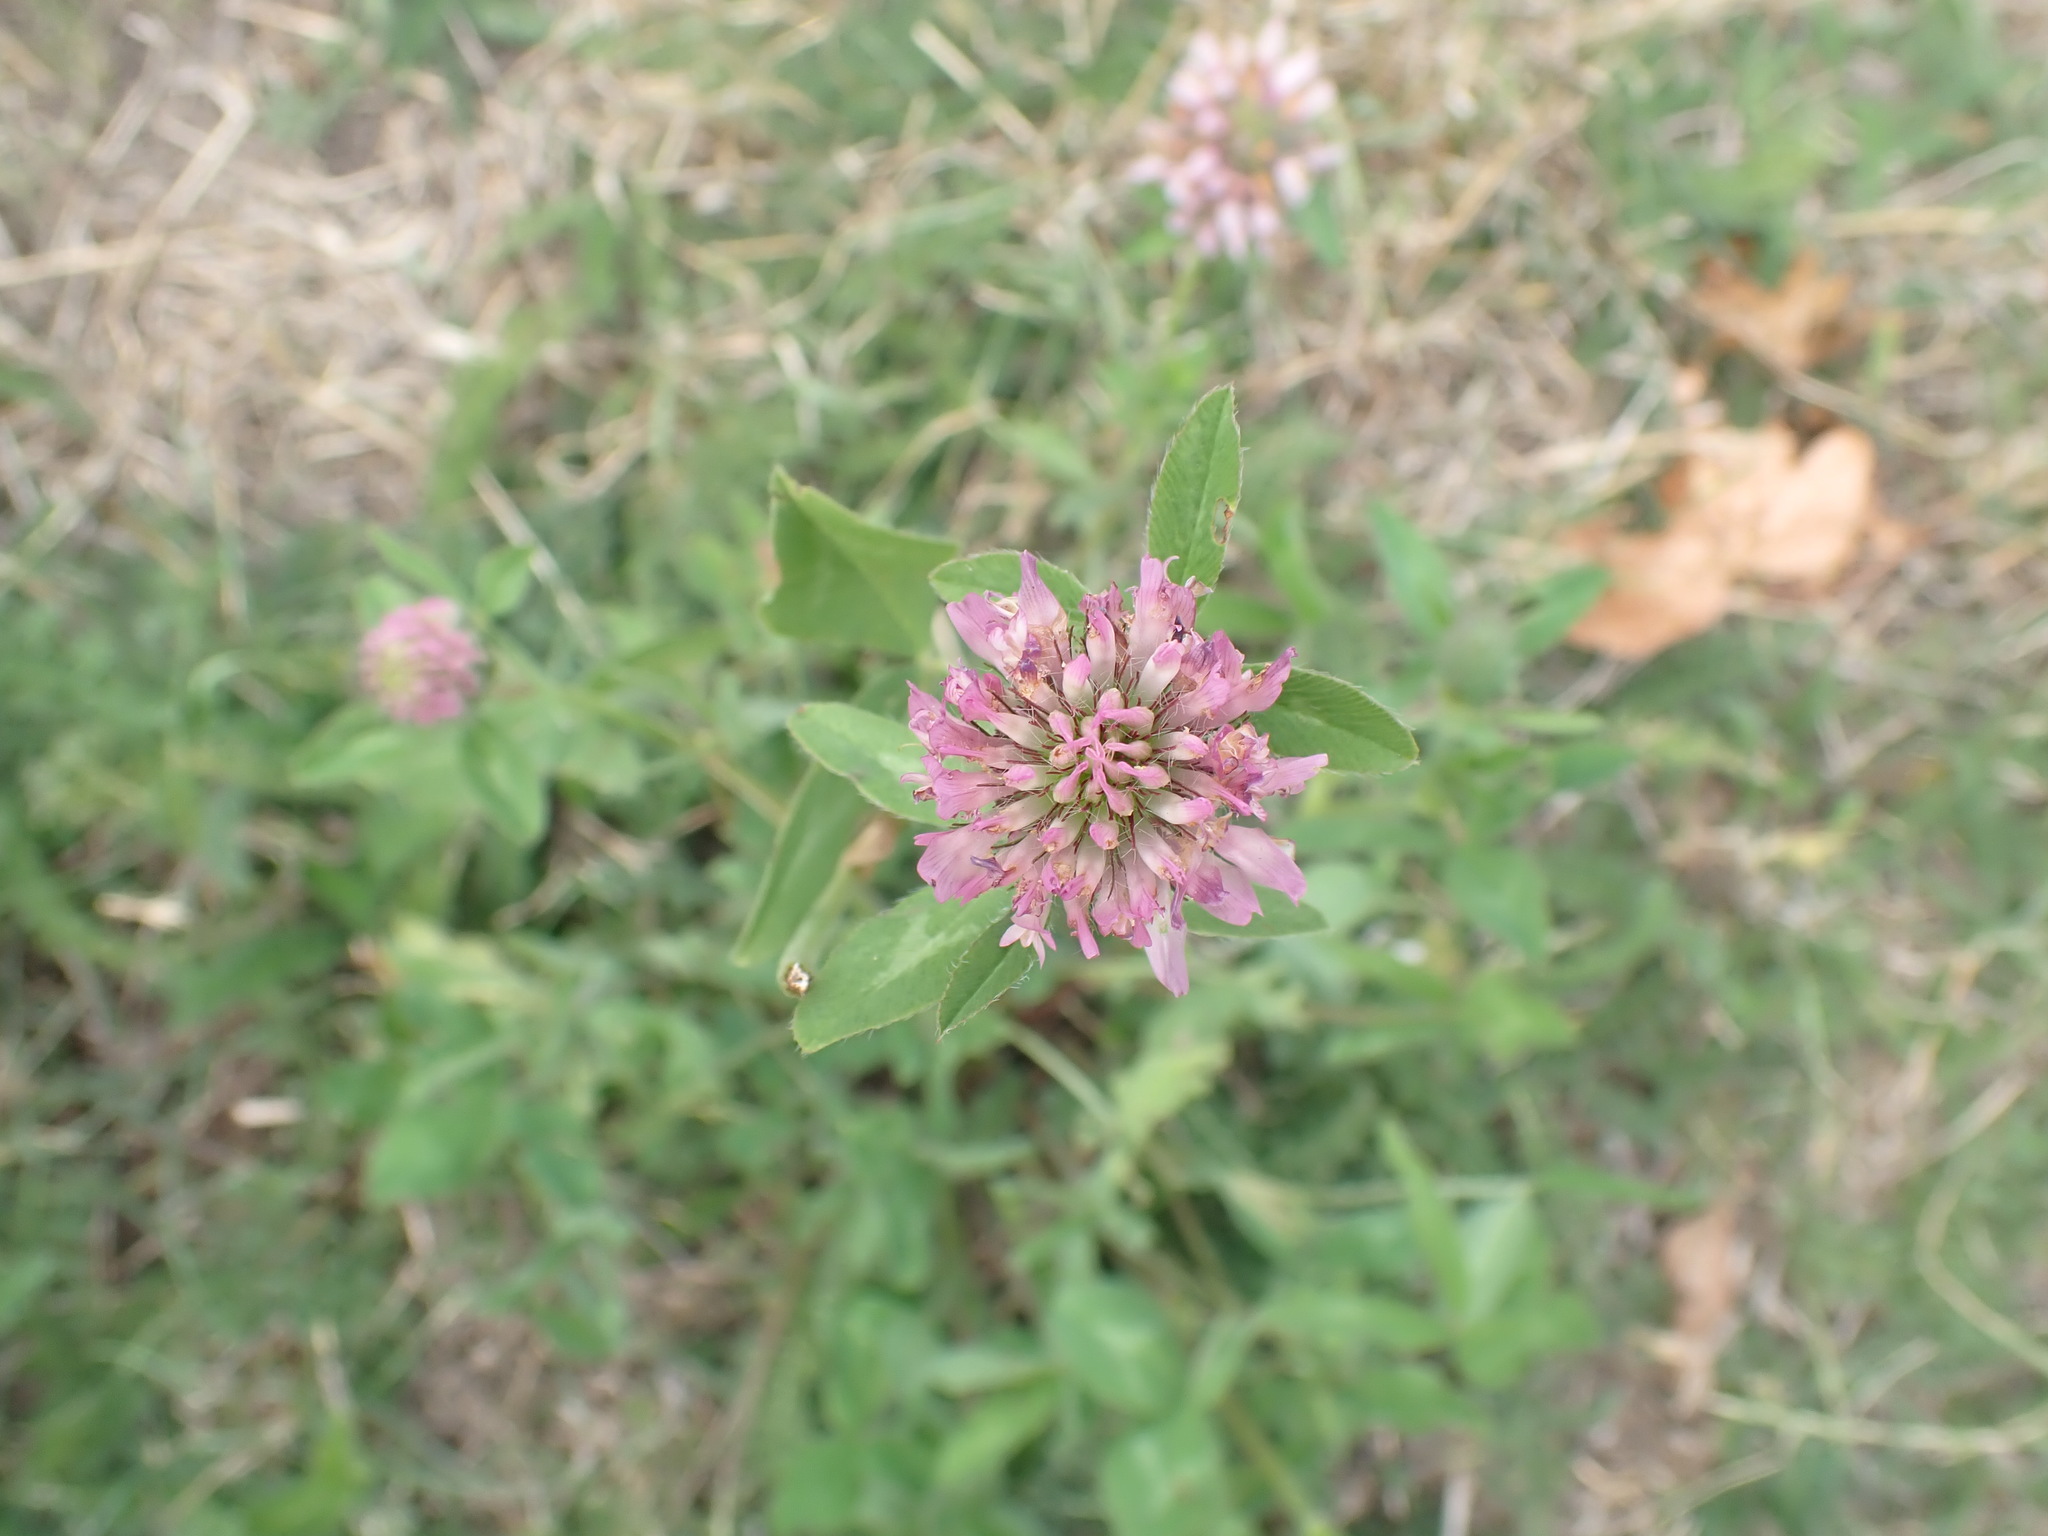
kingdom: Plantae
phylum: Tracheophyta
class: Magnoliopsida
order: Fabales
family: Fabaceae
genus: Trifolium
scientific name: Trifolium pratense
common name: Red clover
